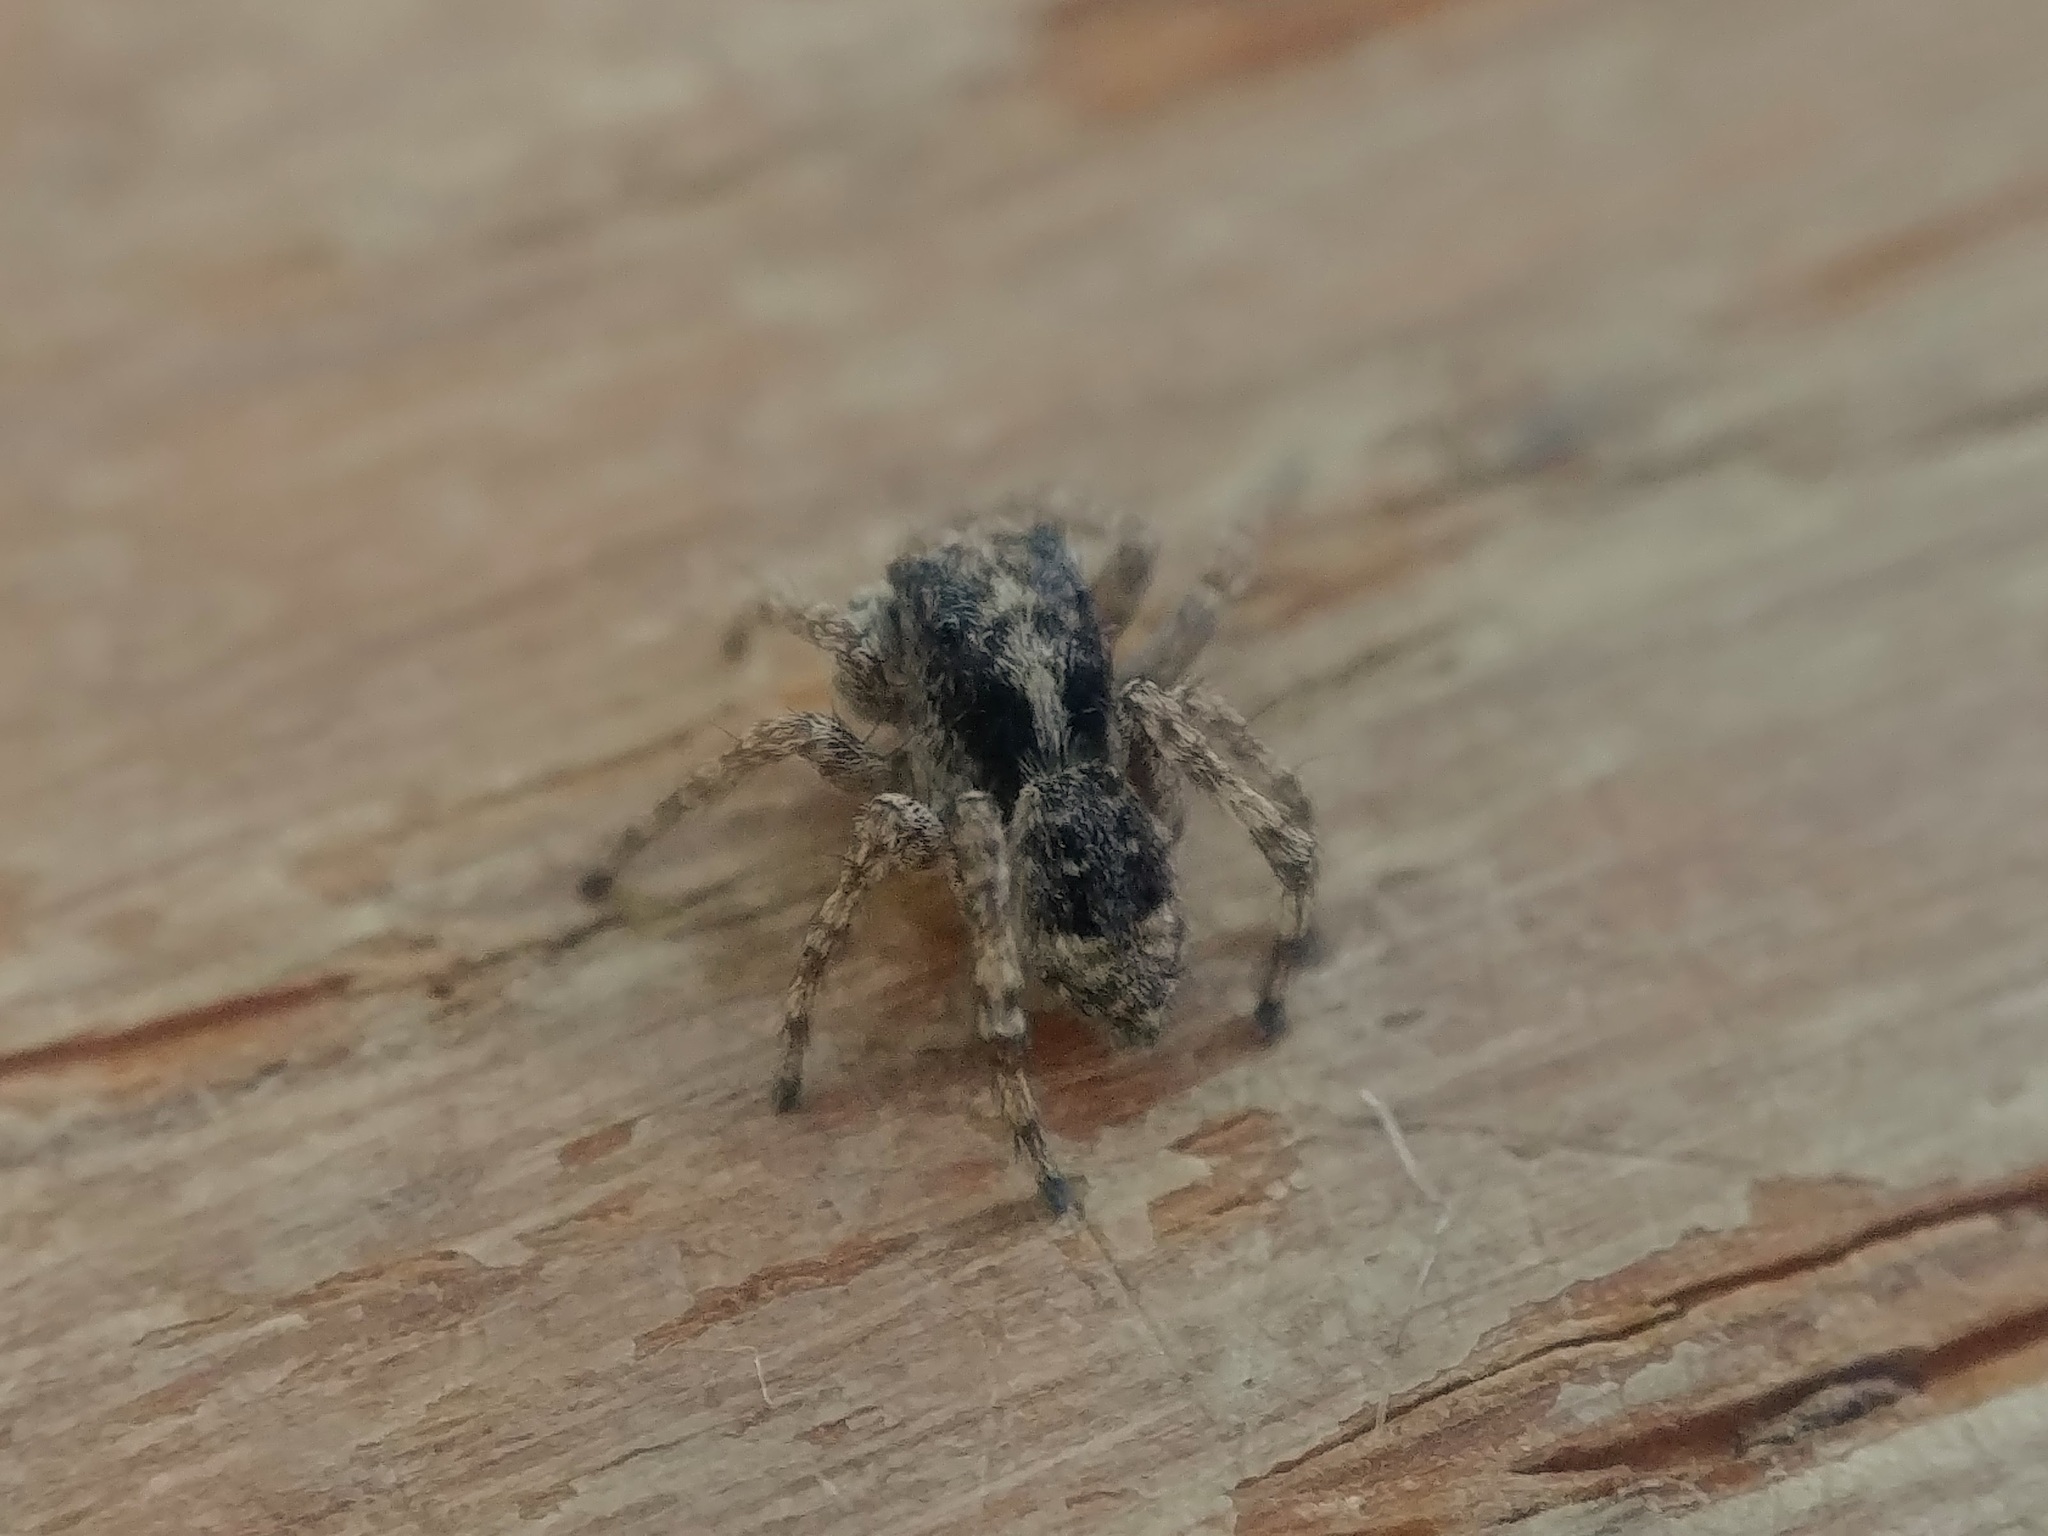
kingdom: Animalia
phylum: Arthropoda
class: Arachnida
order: Araneae
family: Salticidae
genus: Attulus
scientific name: Attulus fasciger
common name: Asiatic wall jumping spider
